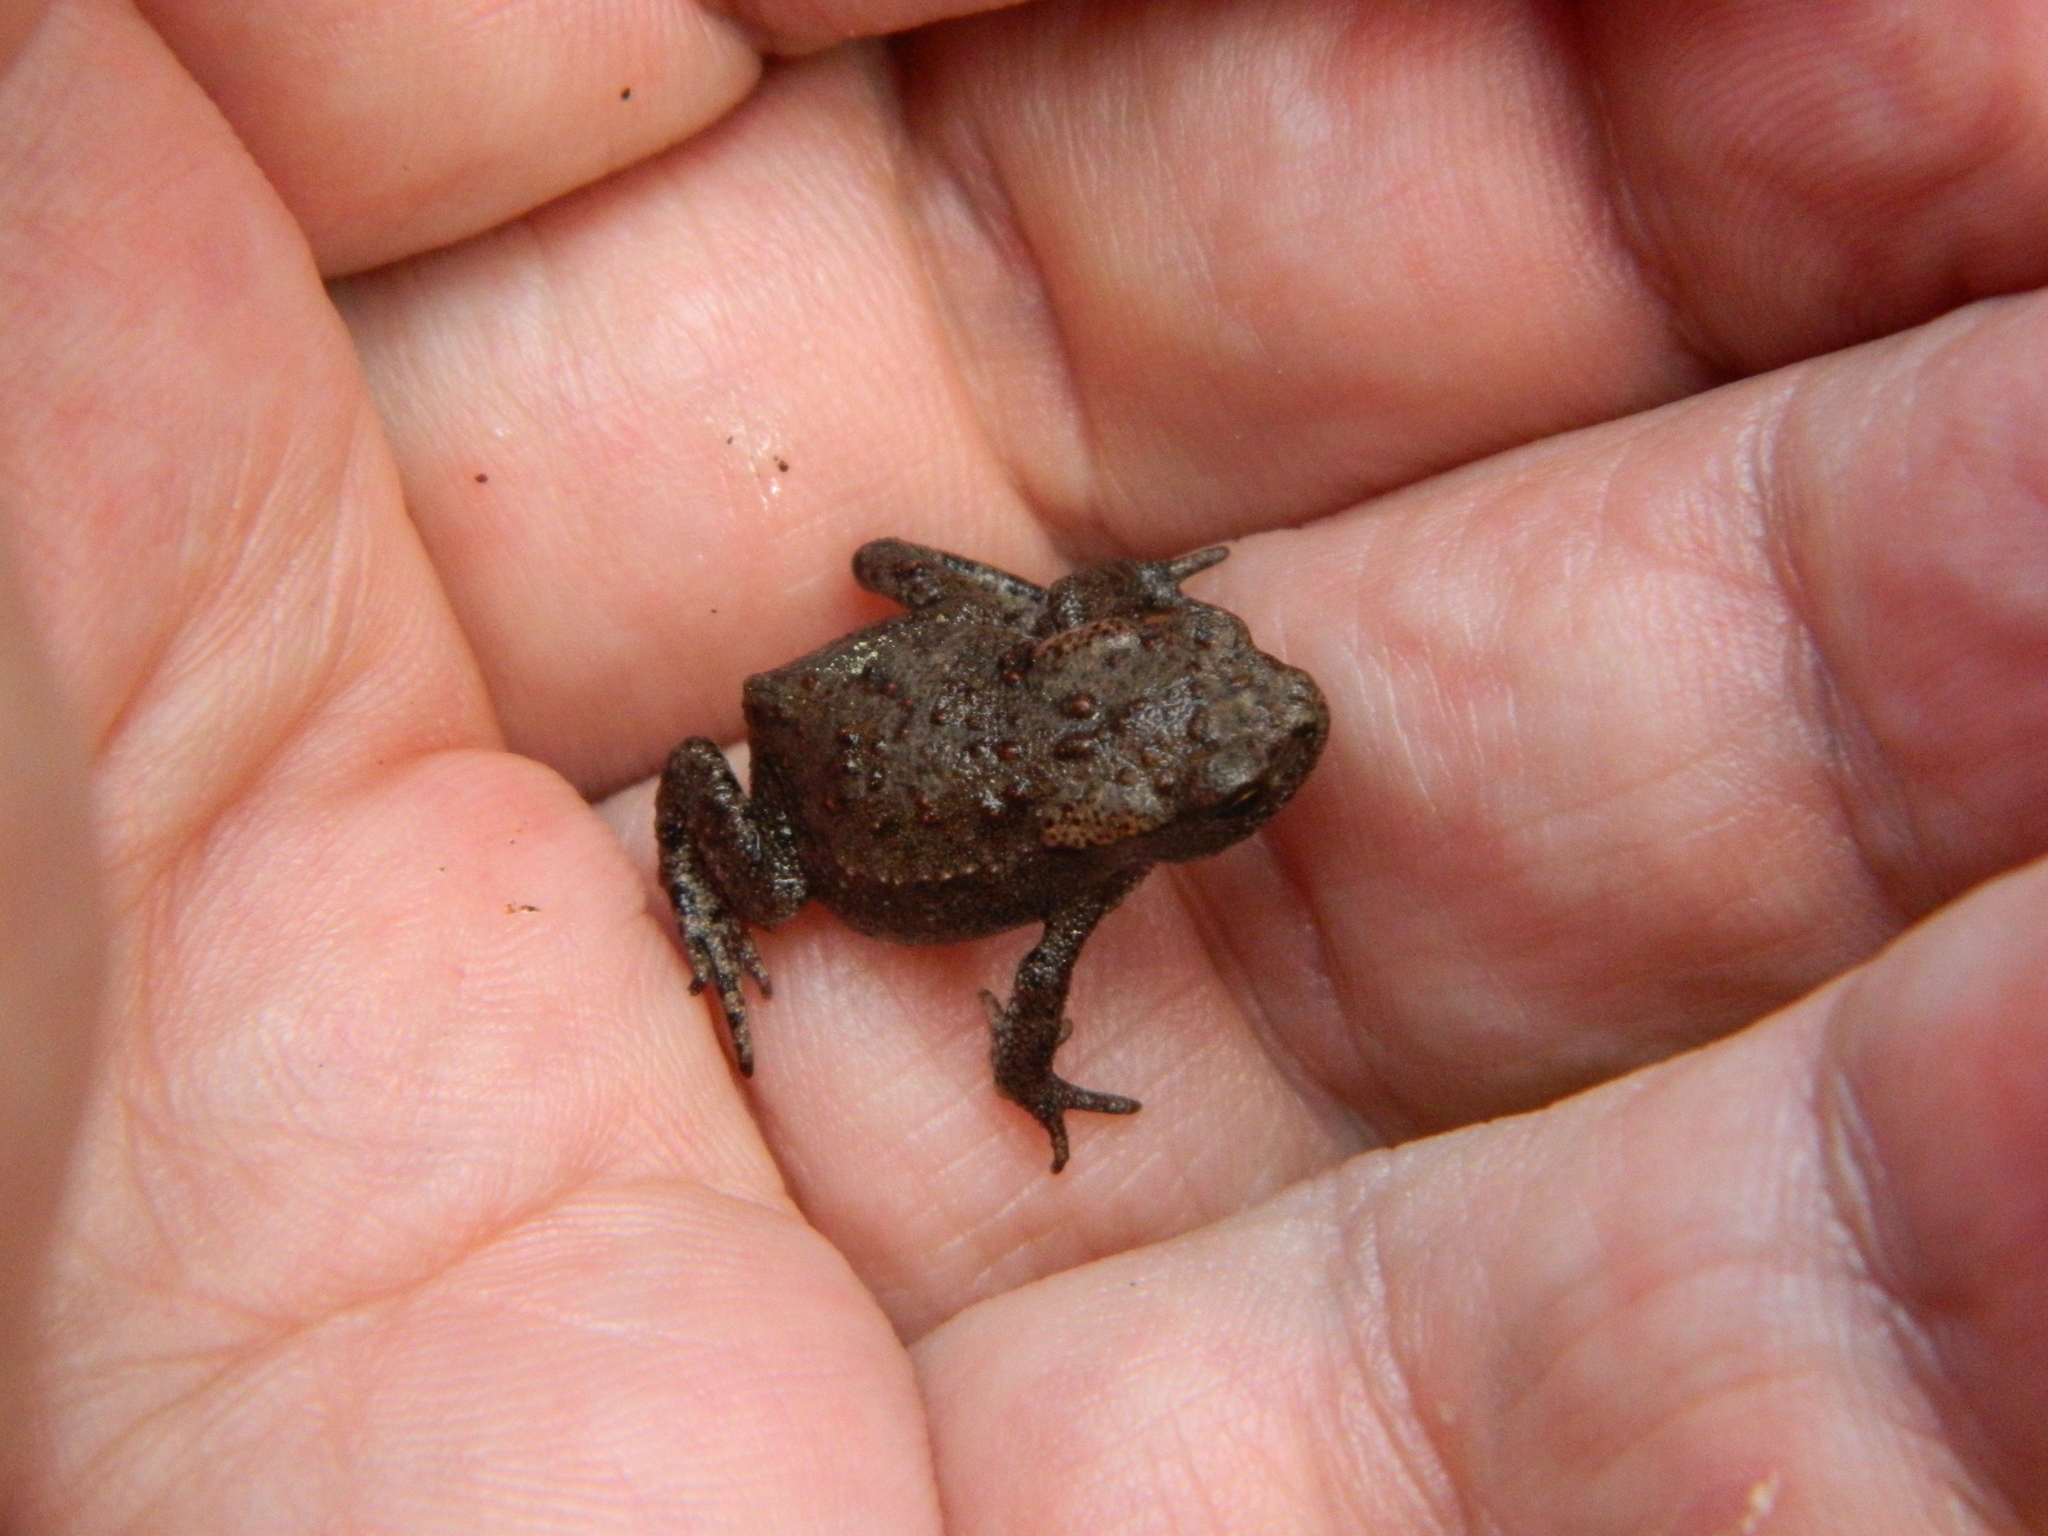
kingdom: Animalia
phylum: Chordata
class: Amphibia
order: Anura
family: Bufonidae
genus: Bufo
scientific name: Bufo bufo
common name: Common toad
